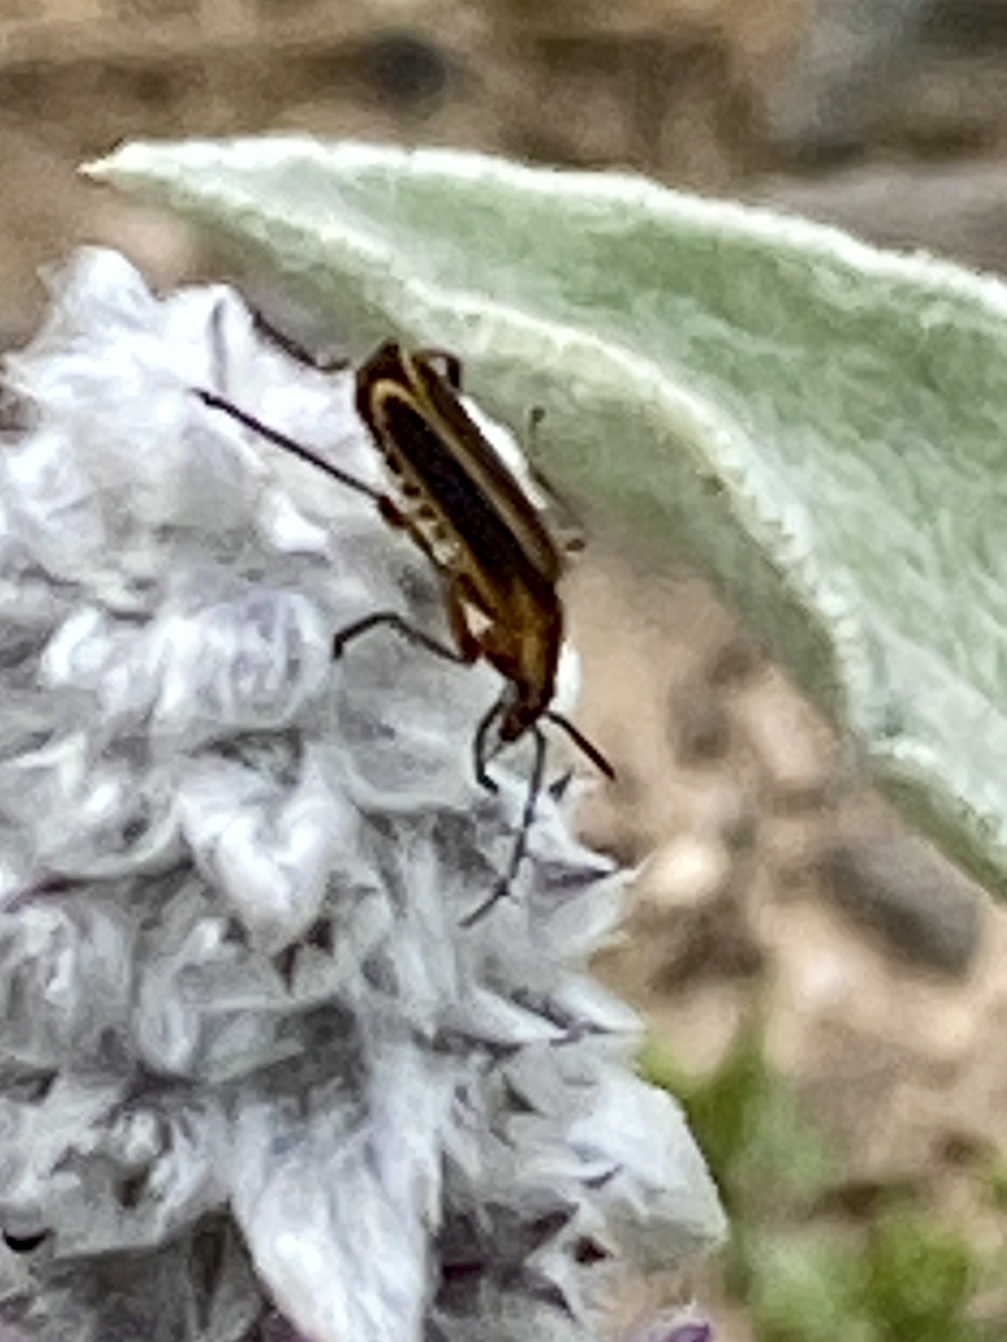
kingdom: Animalia
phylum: Arthropoda
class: Insecta
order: Coleoptera
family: Cantharidae
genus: Chauliognathus
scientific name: Chauliognathus marginatus
